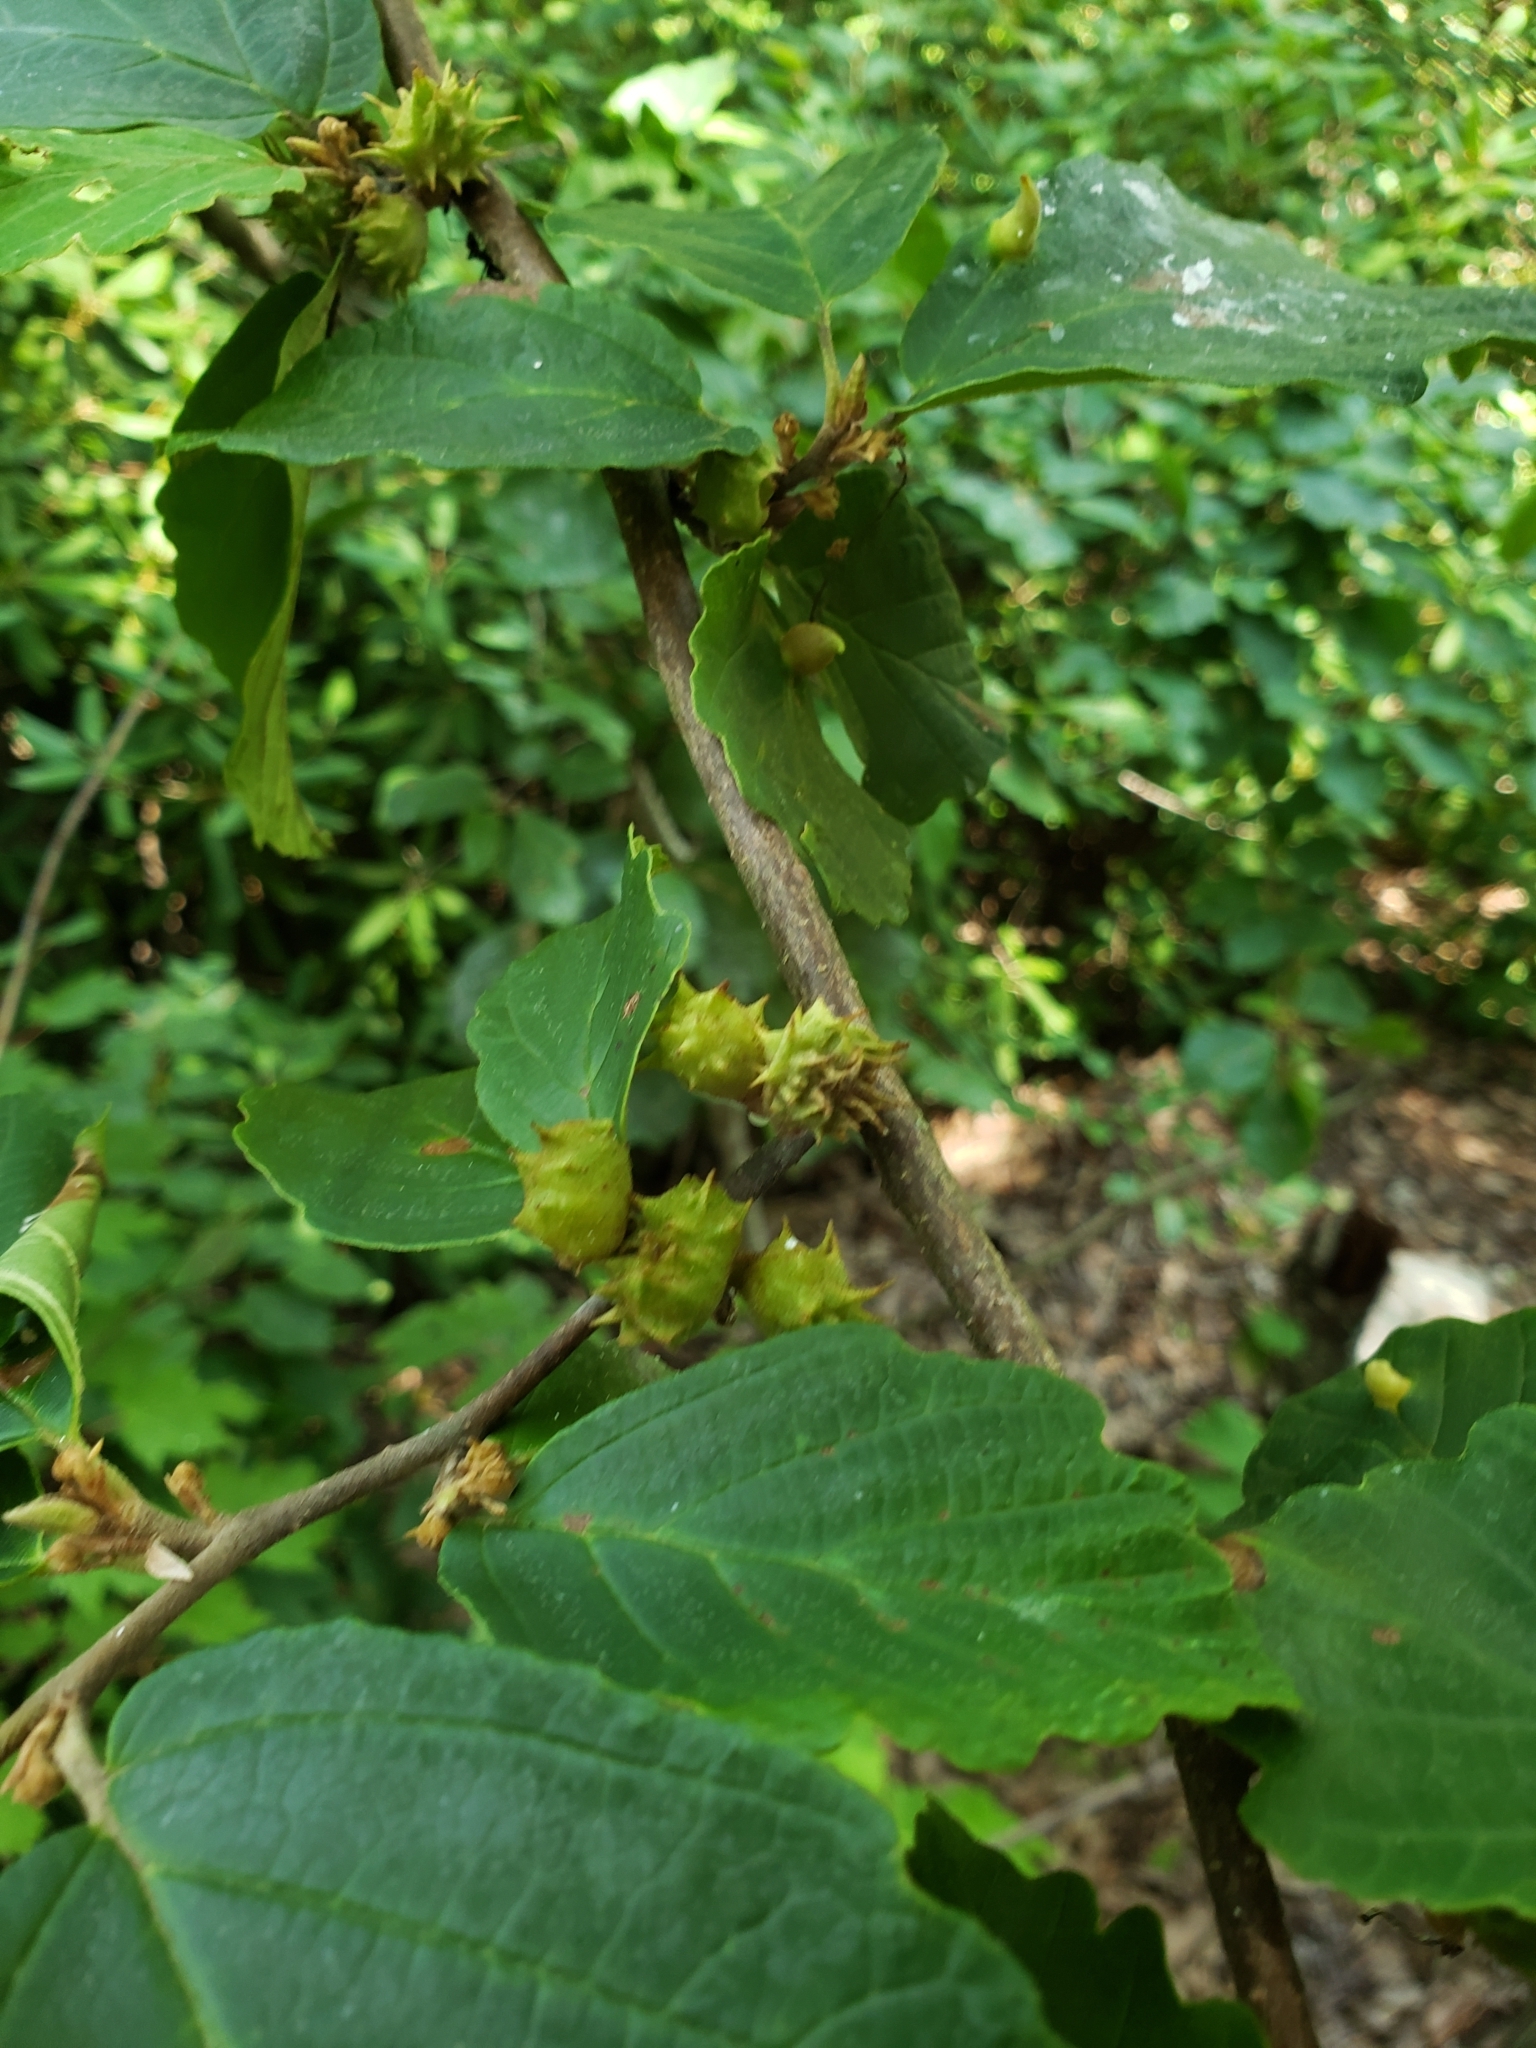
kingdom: Plantae
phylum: Tracheophyta
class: Magnoliopsida
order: Saxifragales
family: Hamamelidaceae
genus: Hamamelis
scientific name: Hamamelis virginiana
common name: Witch-hazel
